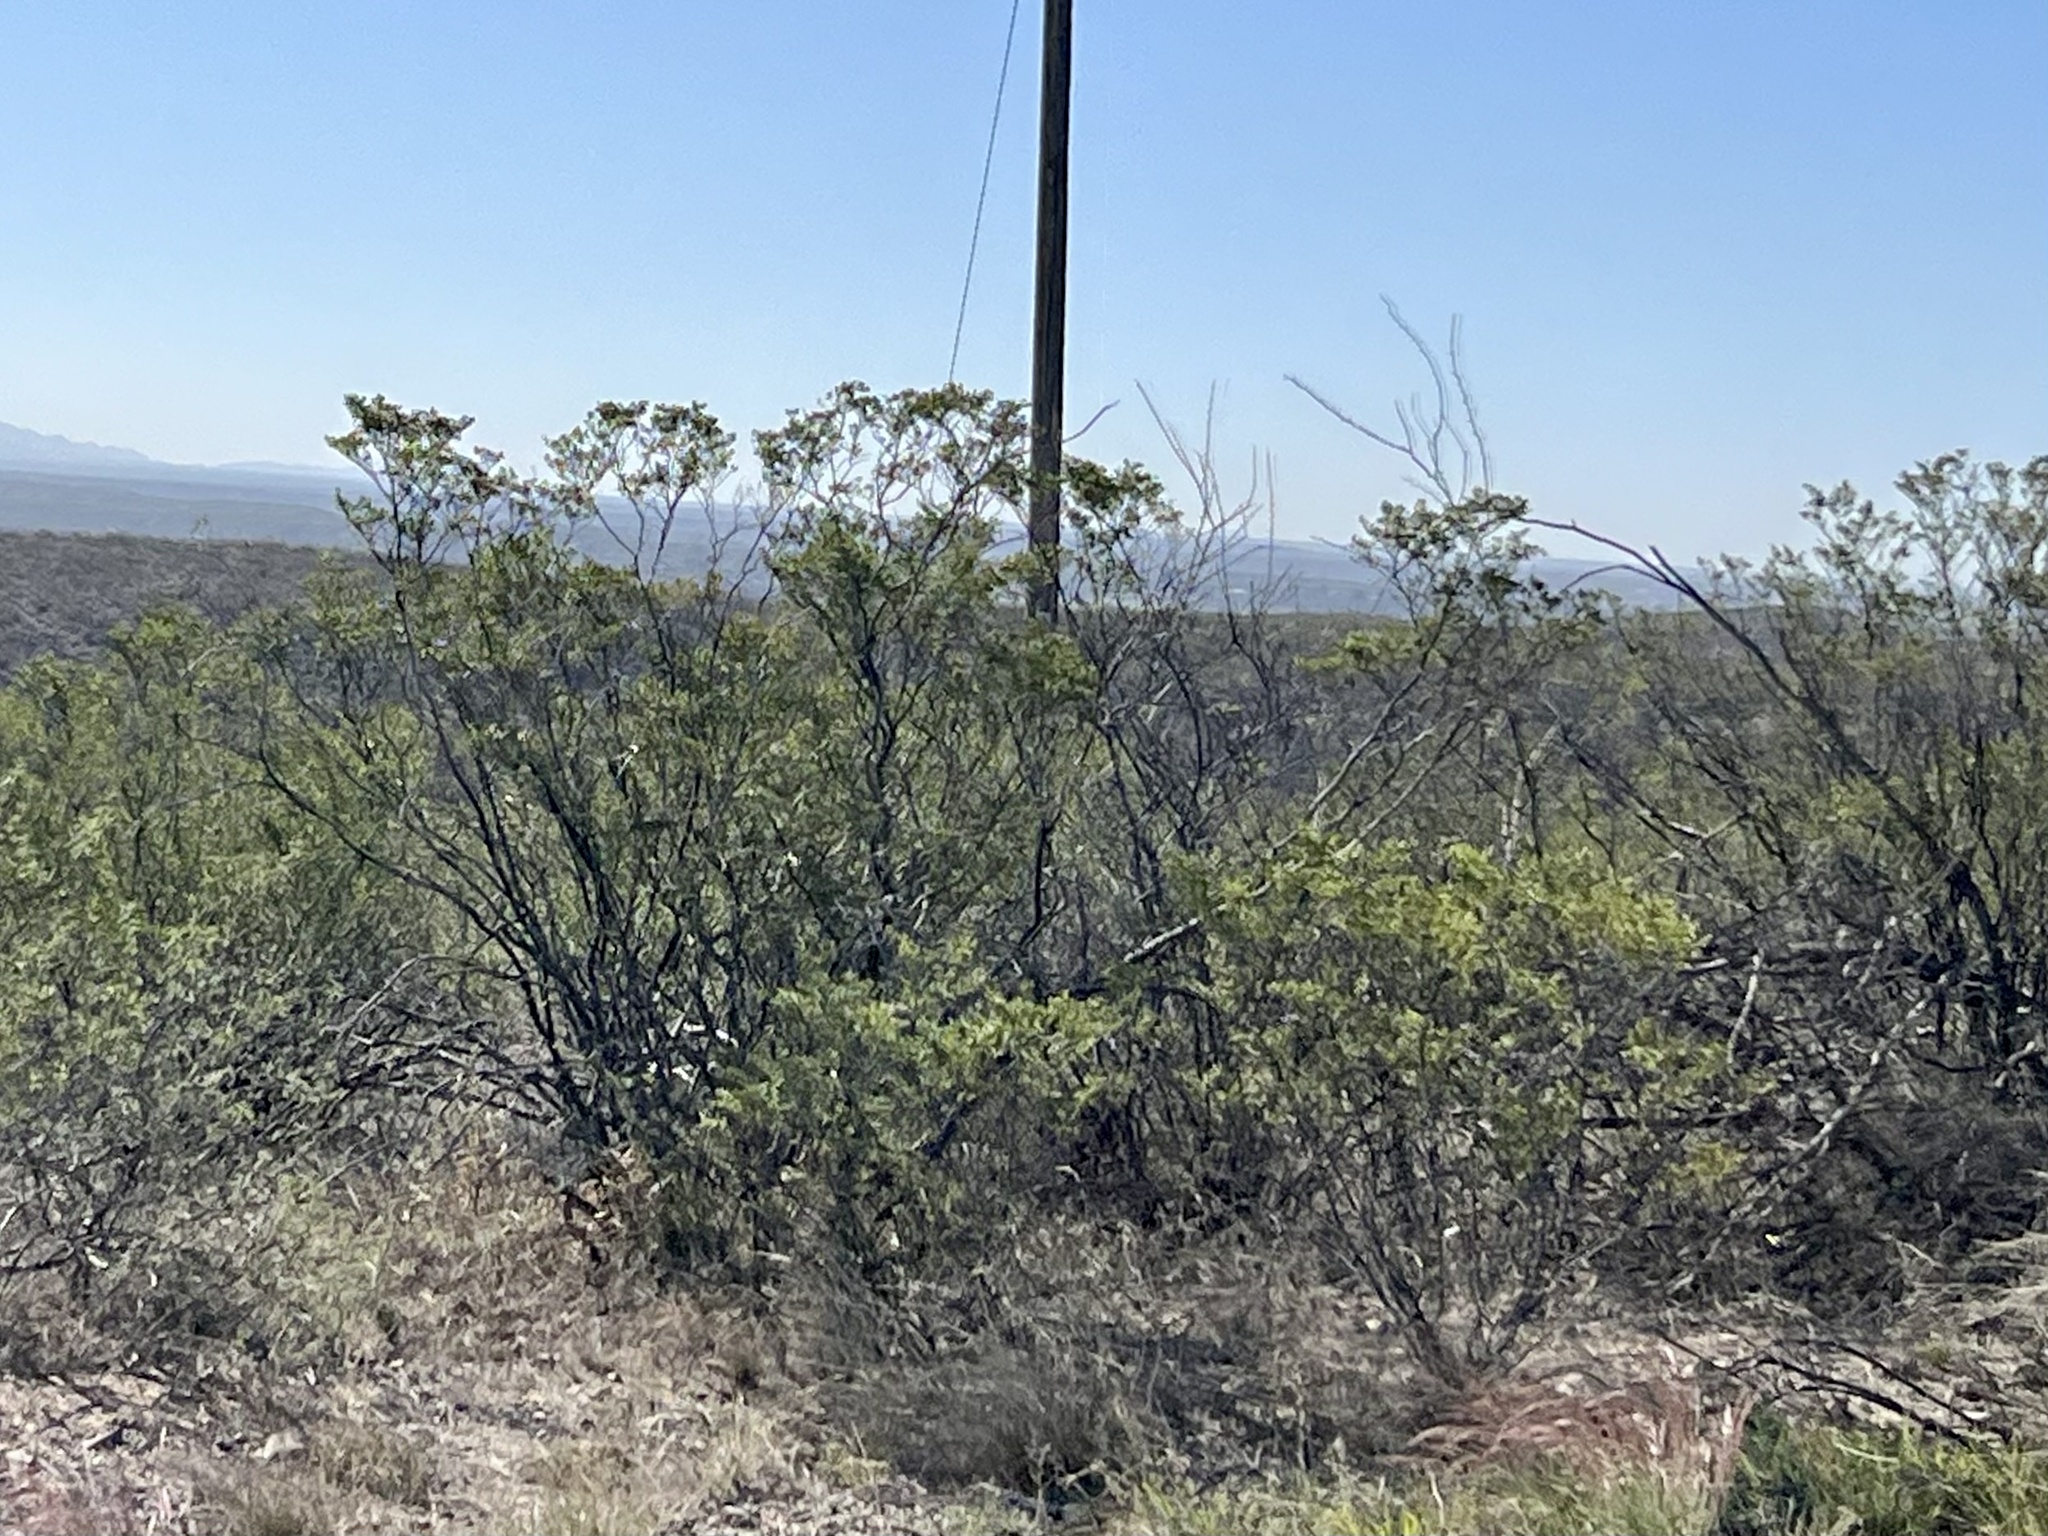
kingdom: Plantae
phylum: Tracheophyta
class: Magnoliopsida
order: Zygophyllales
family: Zygophyllaceae
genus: Larrea
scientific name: Larrea tridentata
